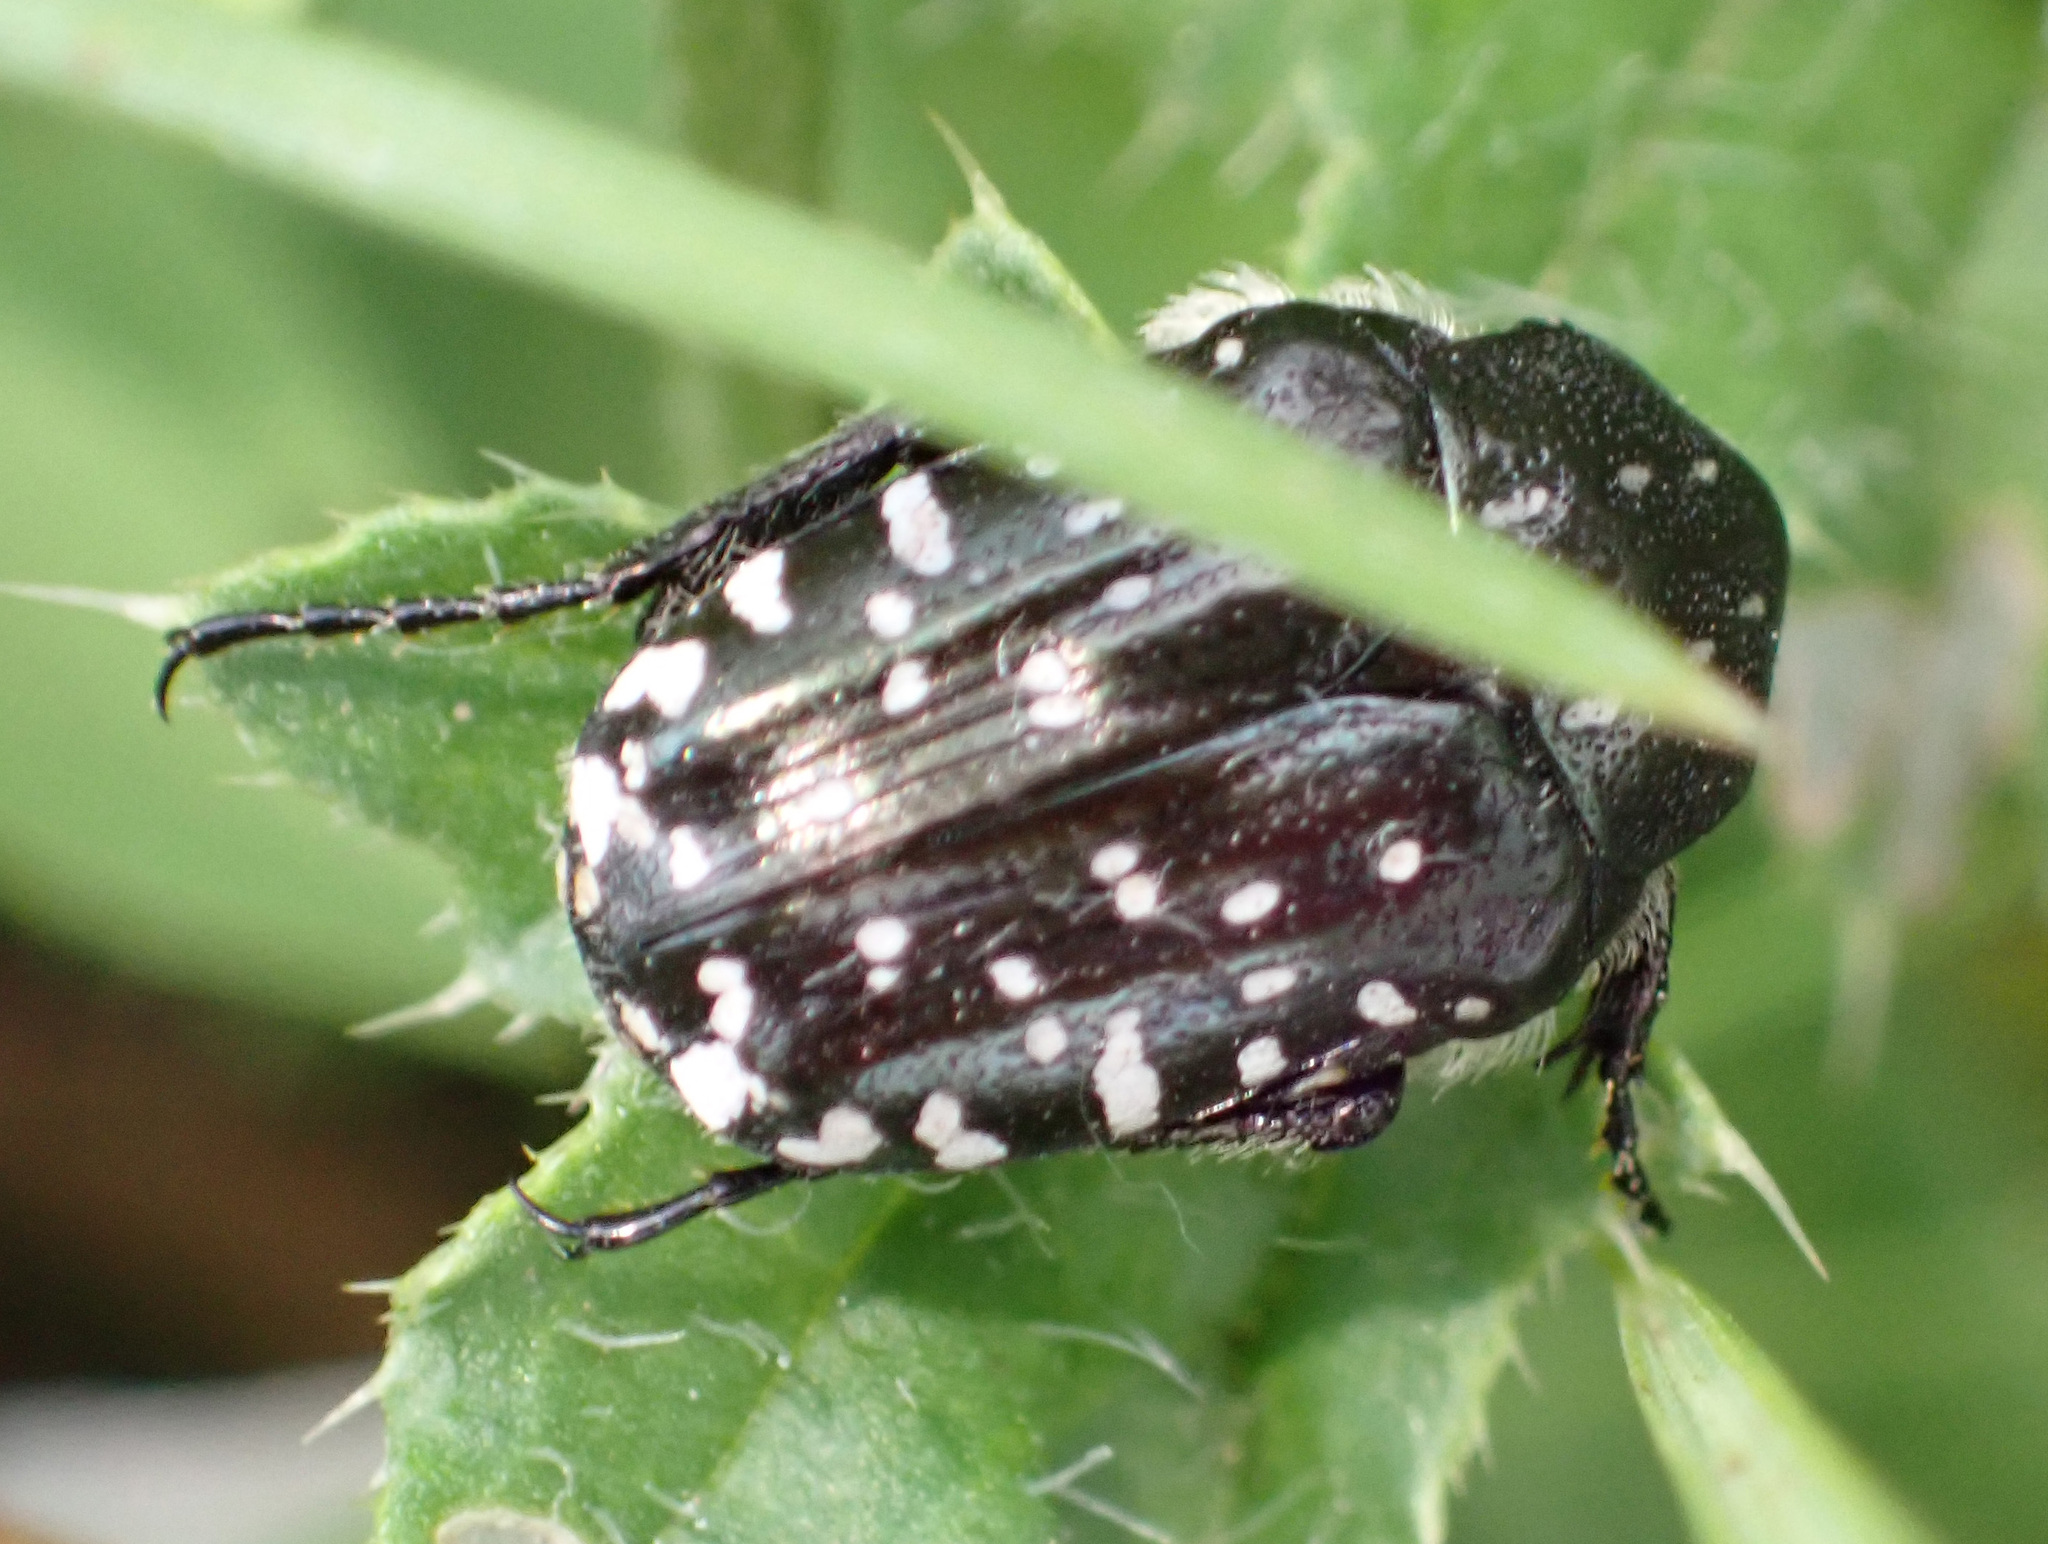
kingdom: Animalia
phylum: Arthropoda
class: Insecta
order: Coleoptera
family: Scarabaeidae
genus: Oxythyrea
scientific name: Oxythyrea funesta
